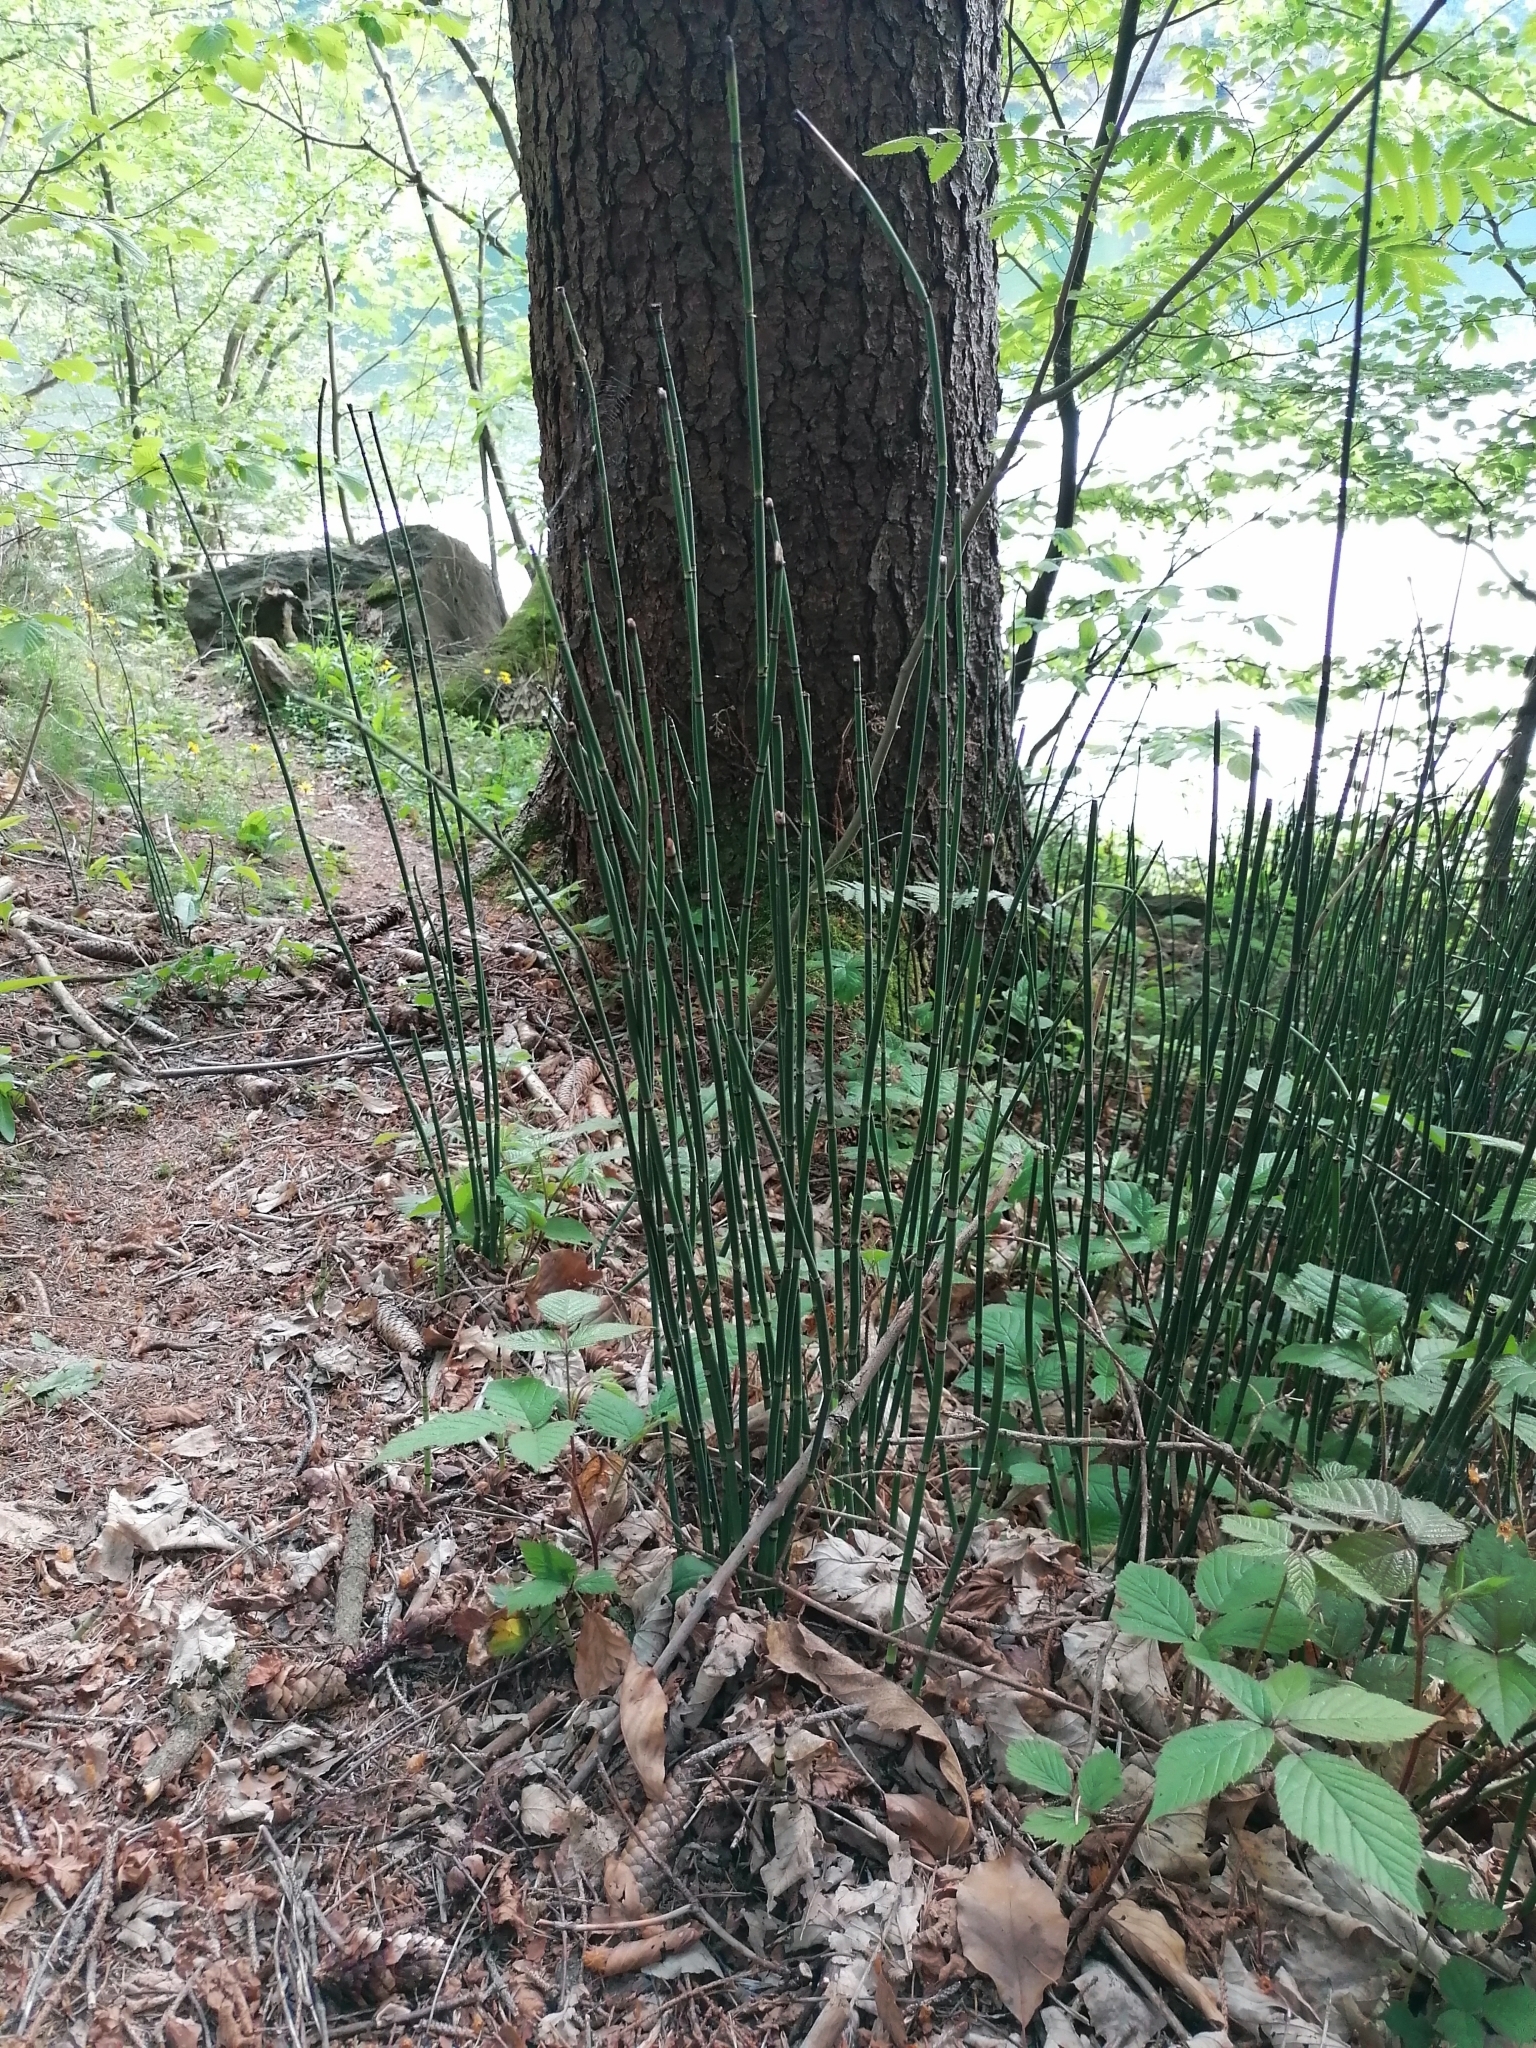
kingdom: Plantae
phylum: Tracheophyta
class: Polypodiopsida
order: Equisetales
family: Equisetaceae
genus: Equisetum
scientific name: Equisetum hyemale
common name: Rough horsetail
